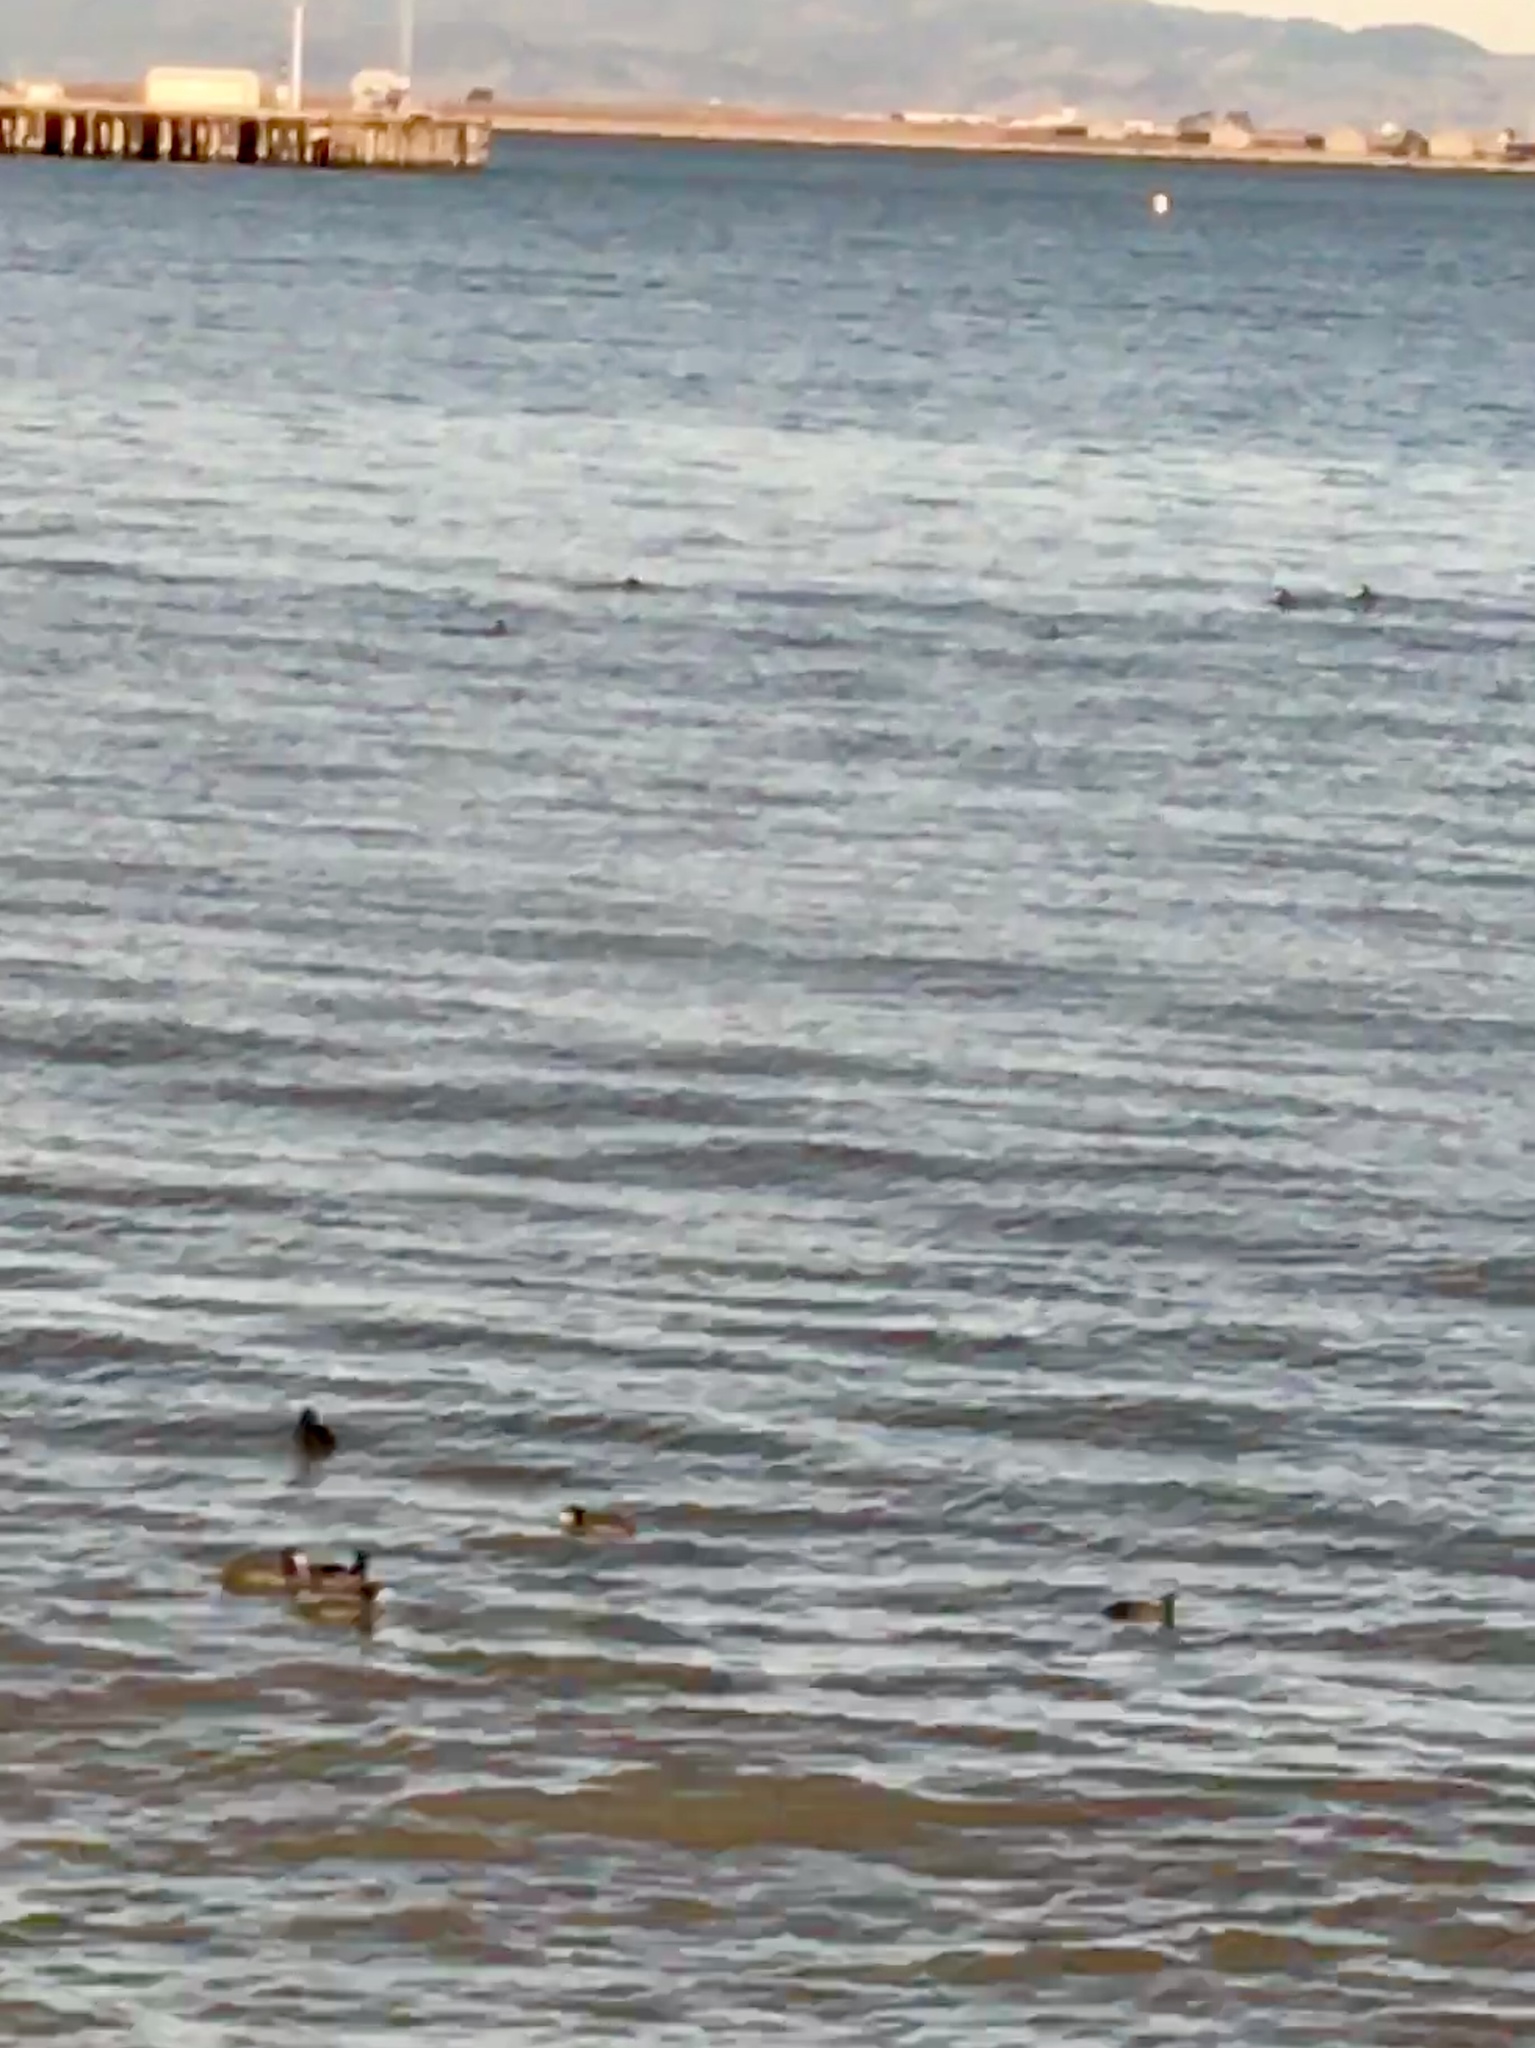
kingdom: Animalia
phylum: Chordata
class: Aves
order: Gruiformes
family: Rallidae
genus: Fulica
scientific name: Fulica americana
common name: American coot
